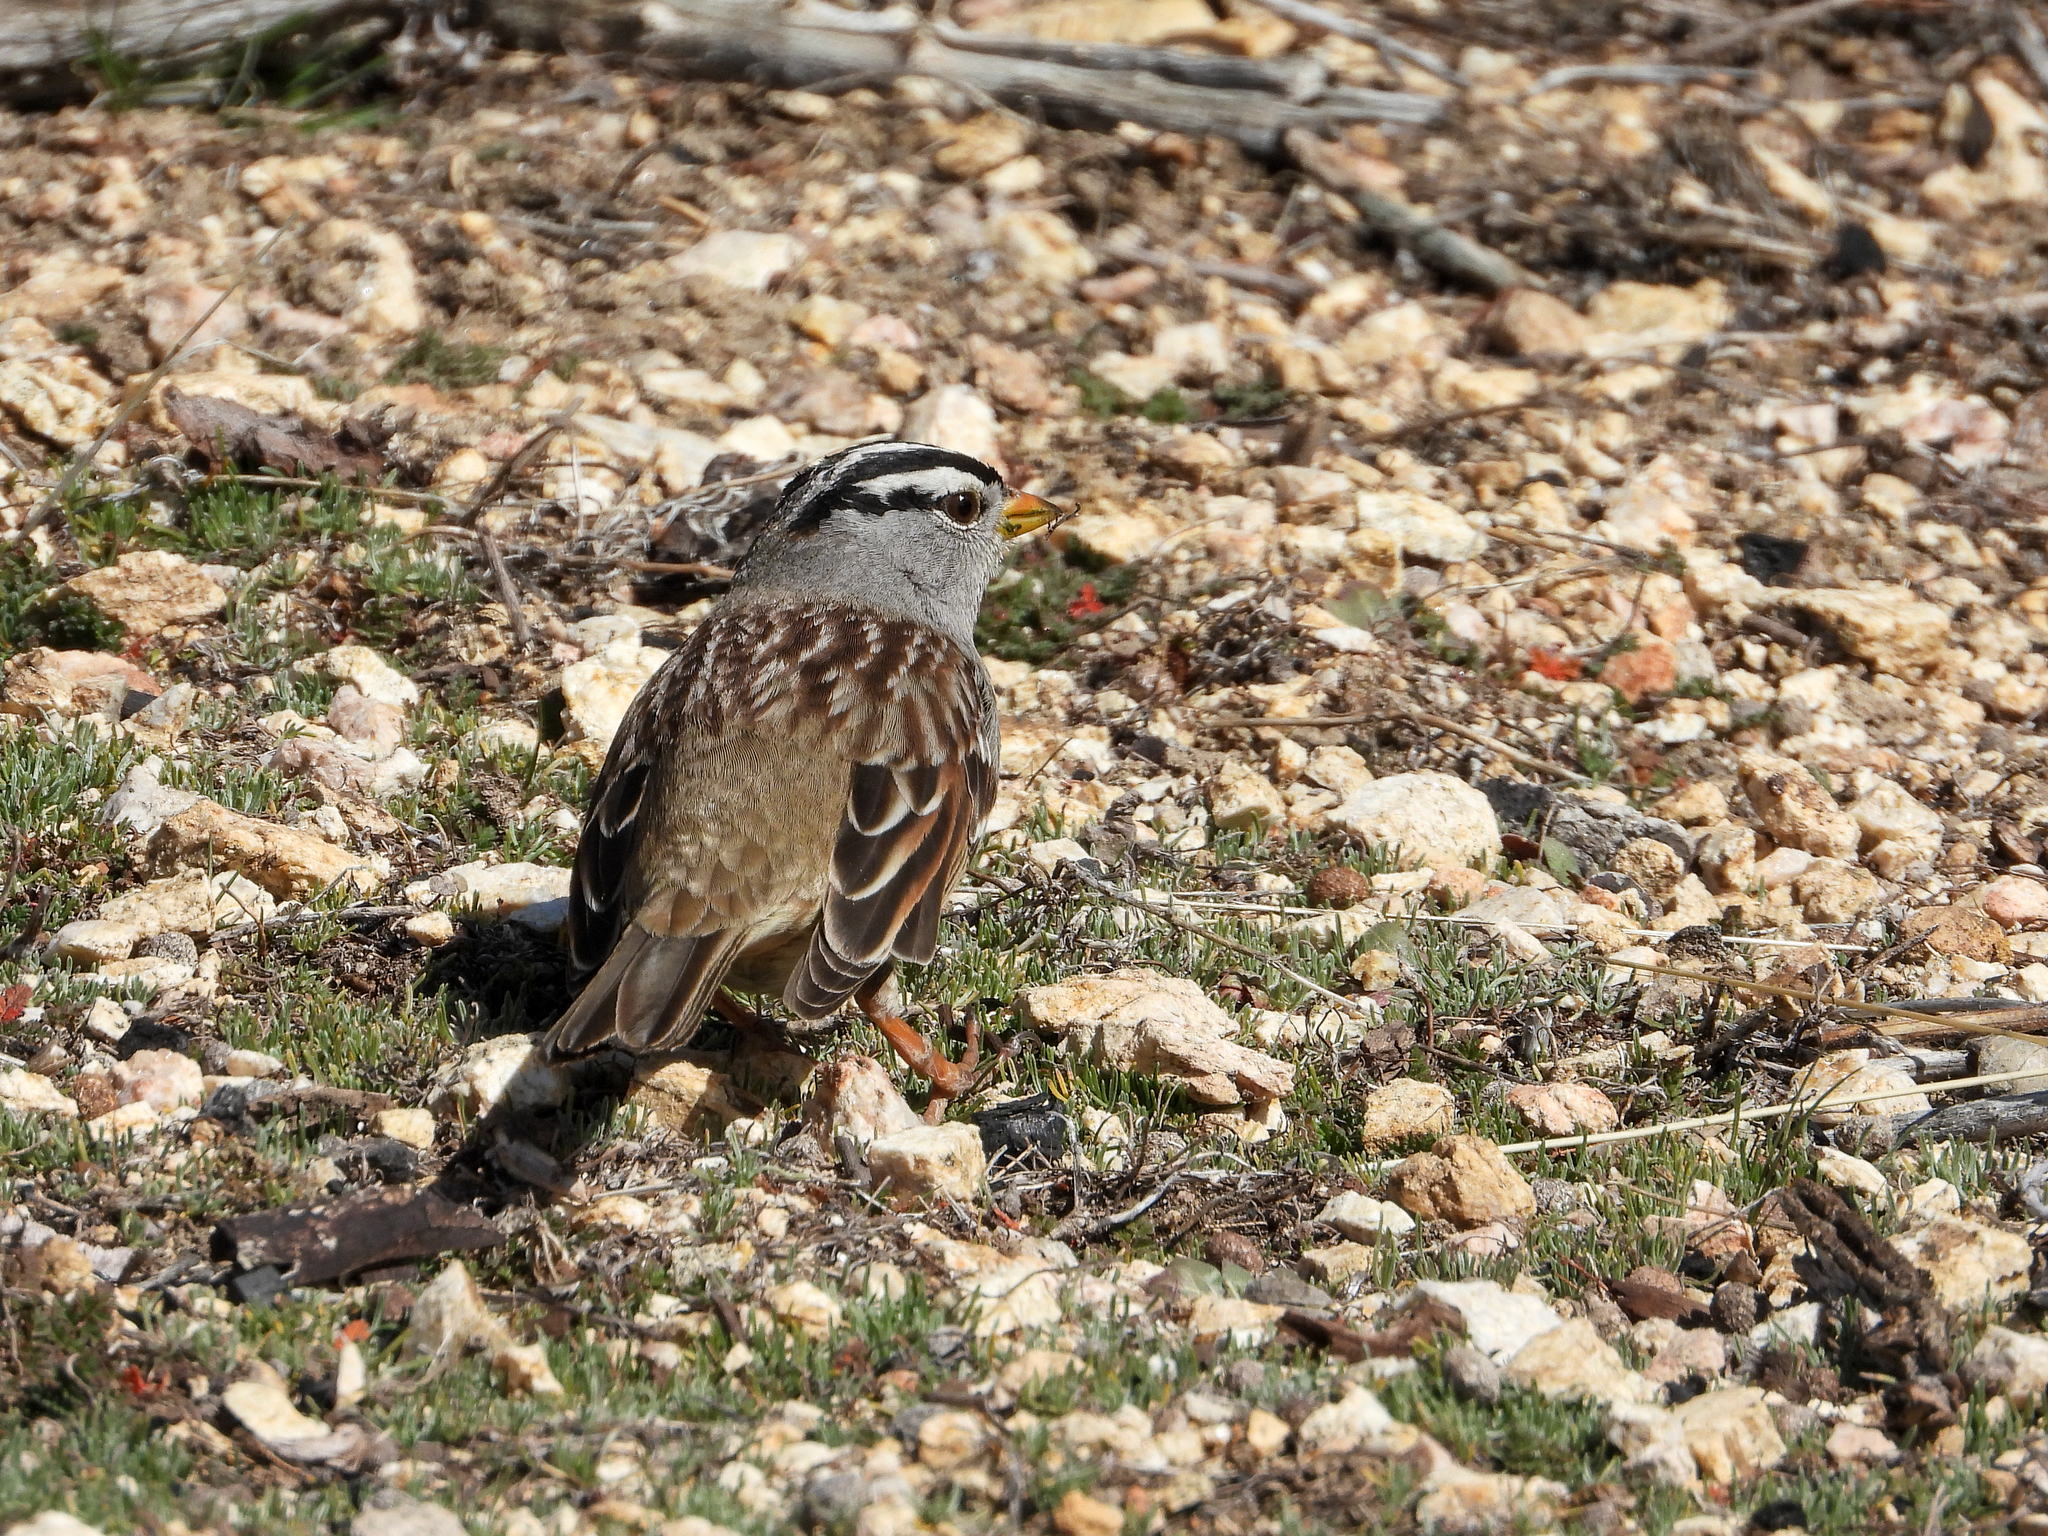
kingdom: Animalia
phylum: Chordata
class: Aves
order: Passeriformes
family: Passerellidae
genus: Zonotrichia
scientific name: Zonotrichia leucophrys
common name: White-crowned sparrow
